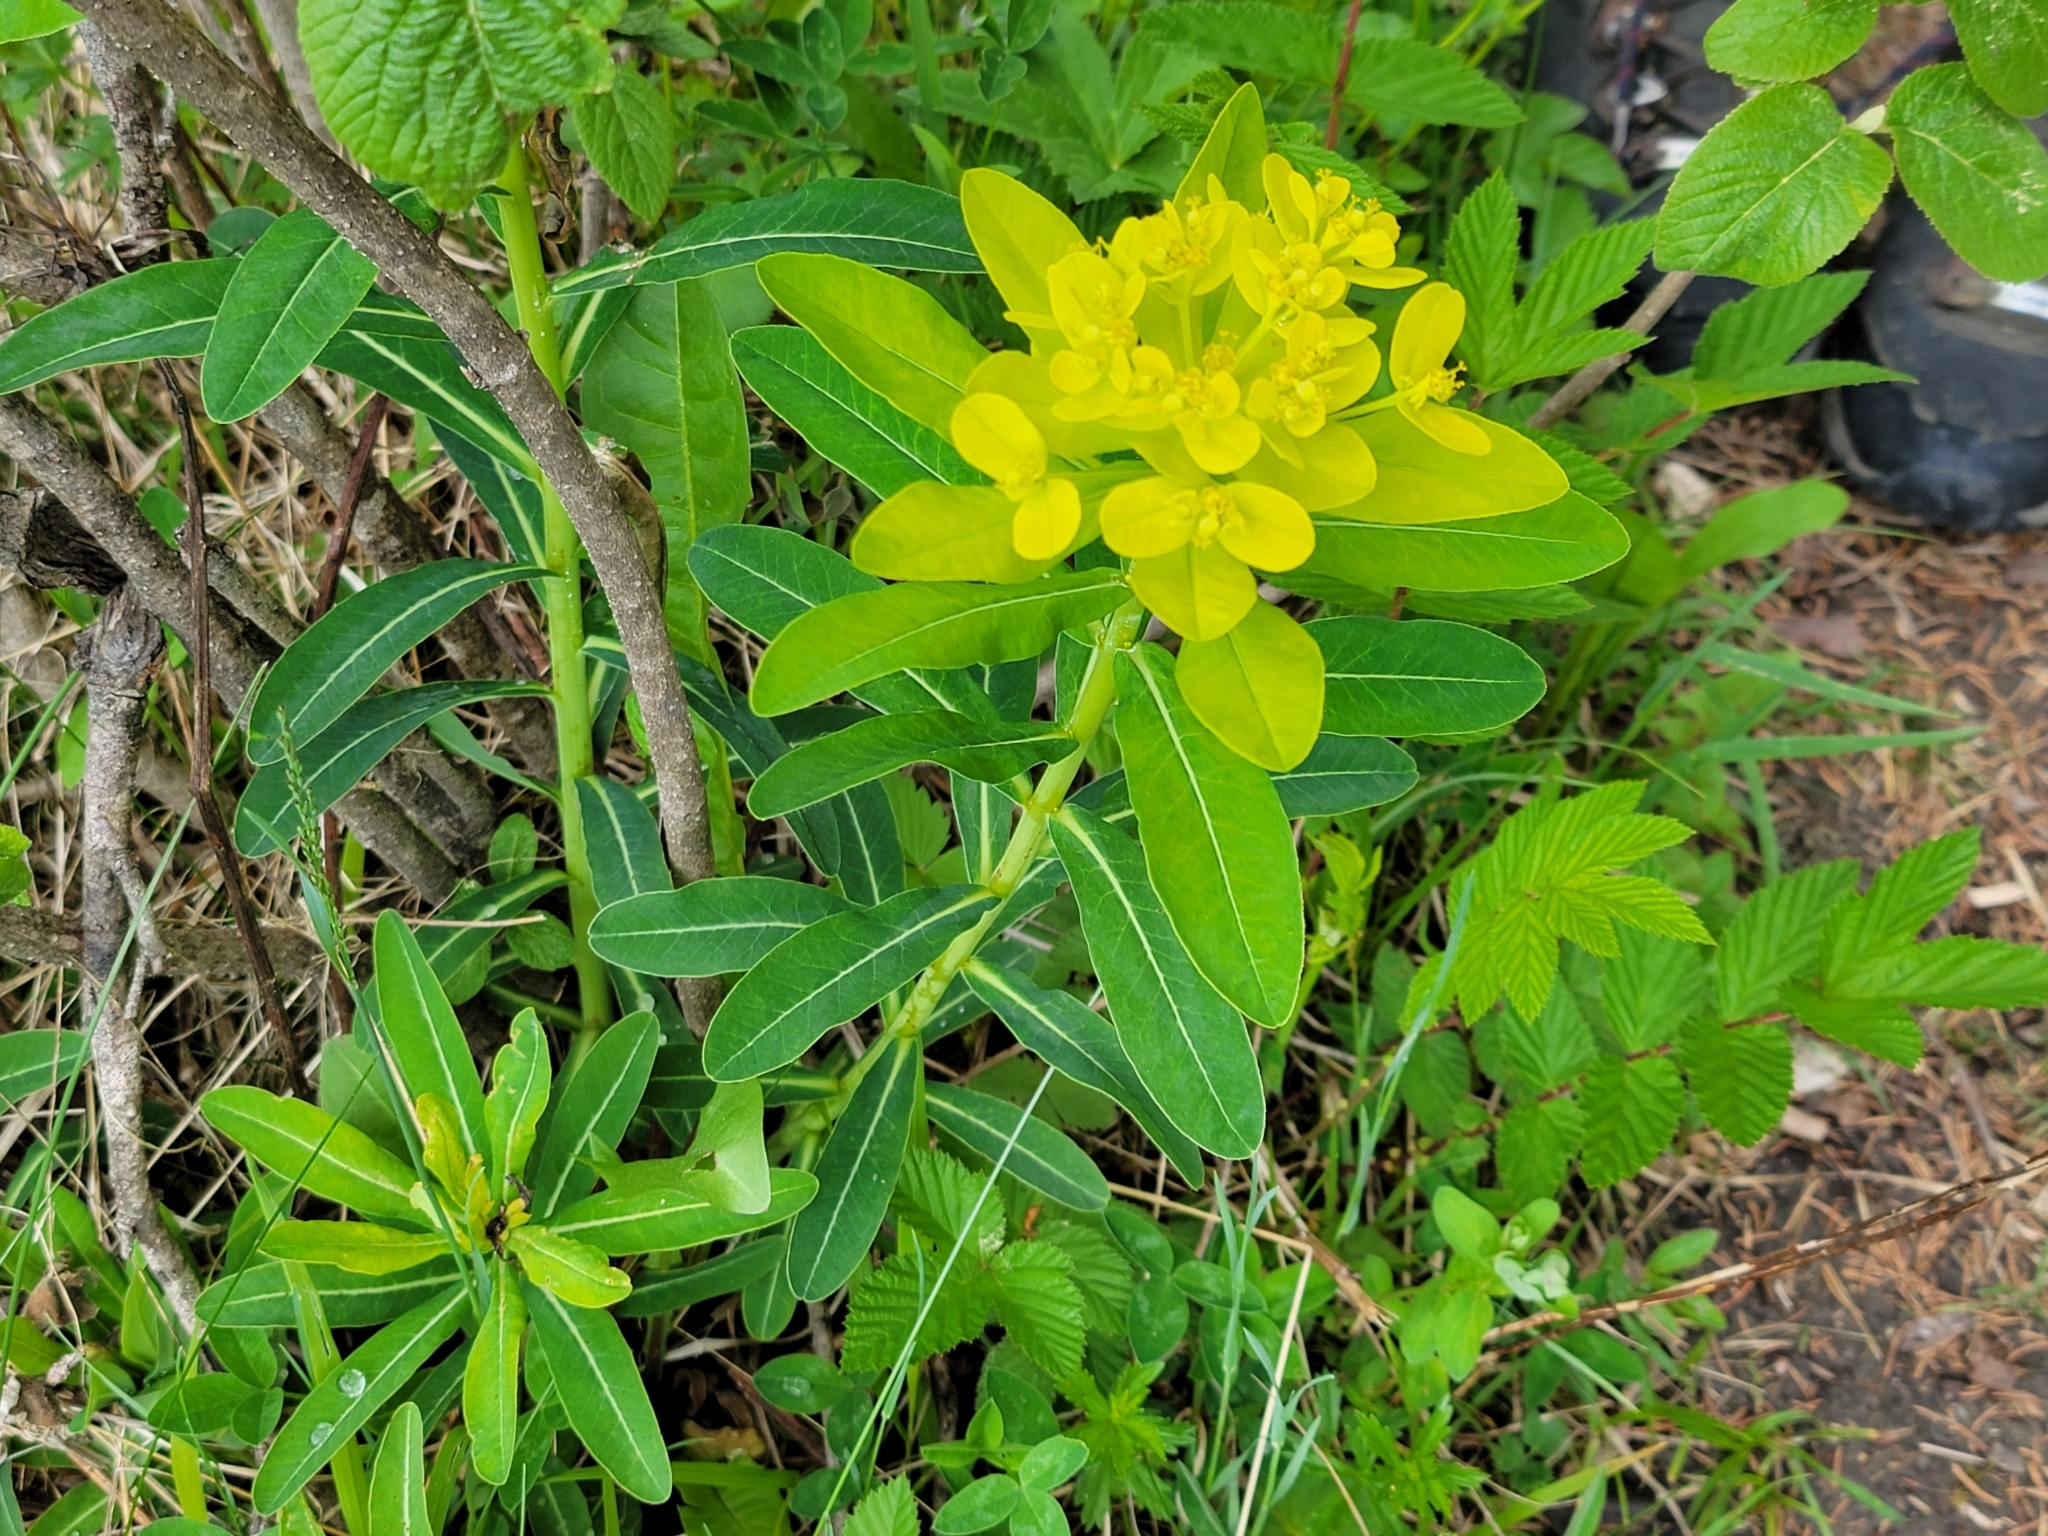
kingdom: Plantae
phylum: Tracheophyta
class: Magnoliopsida
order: Malpighiales
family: Euphorbiaceae
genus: Euphorbia
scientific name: Euphorbia austriaca
